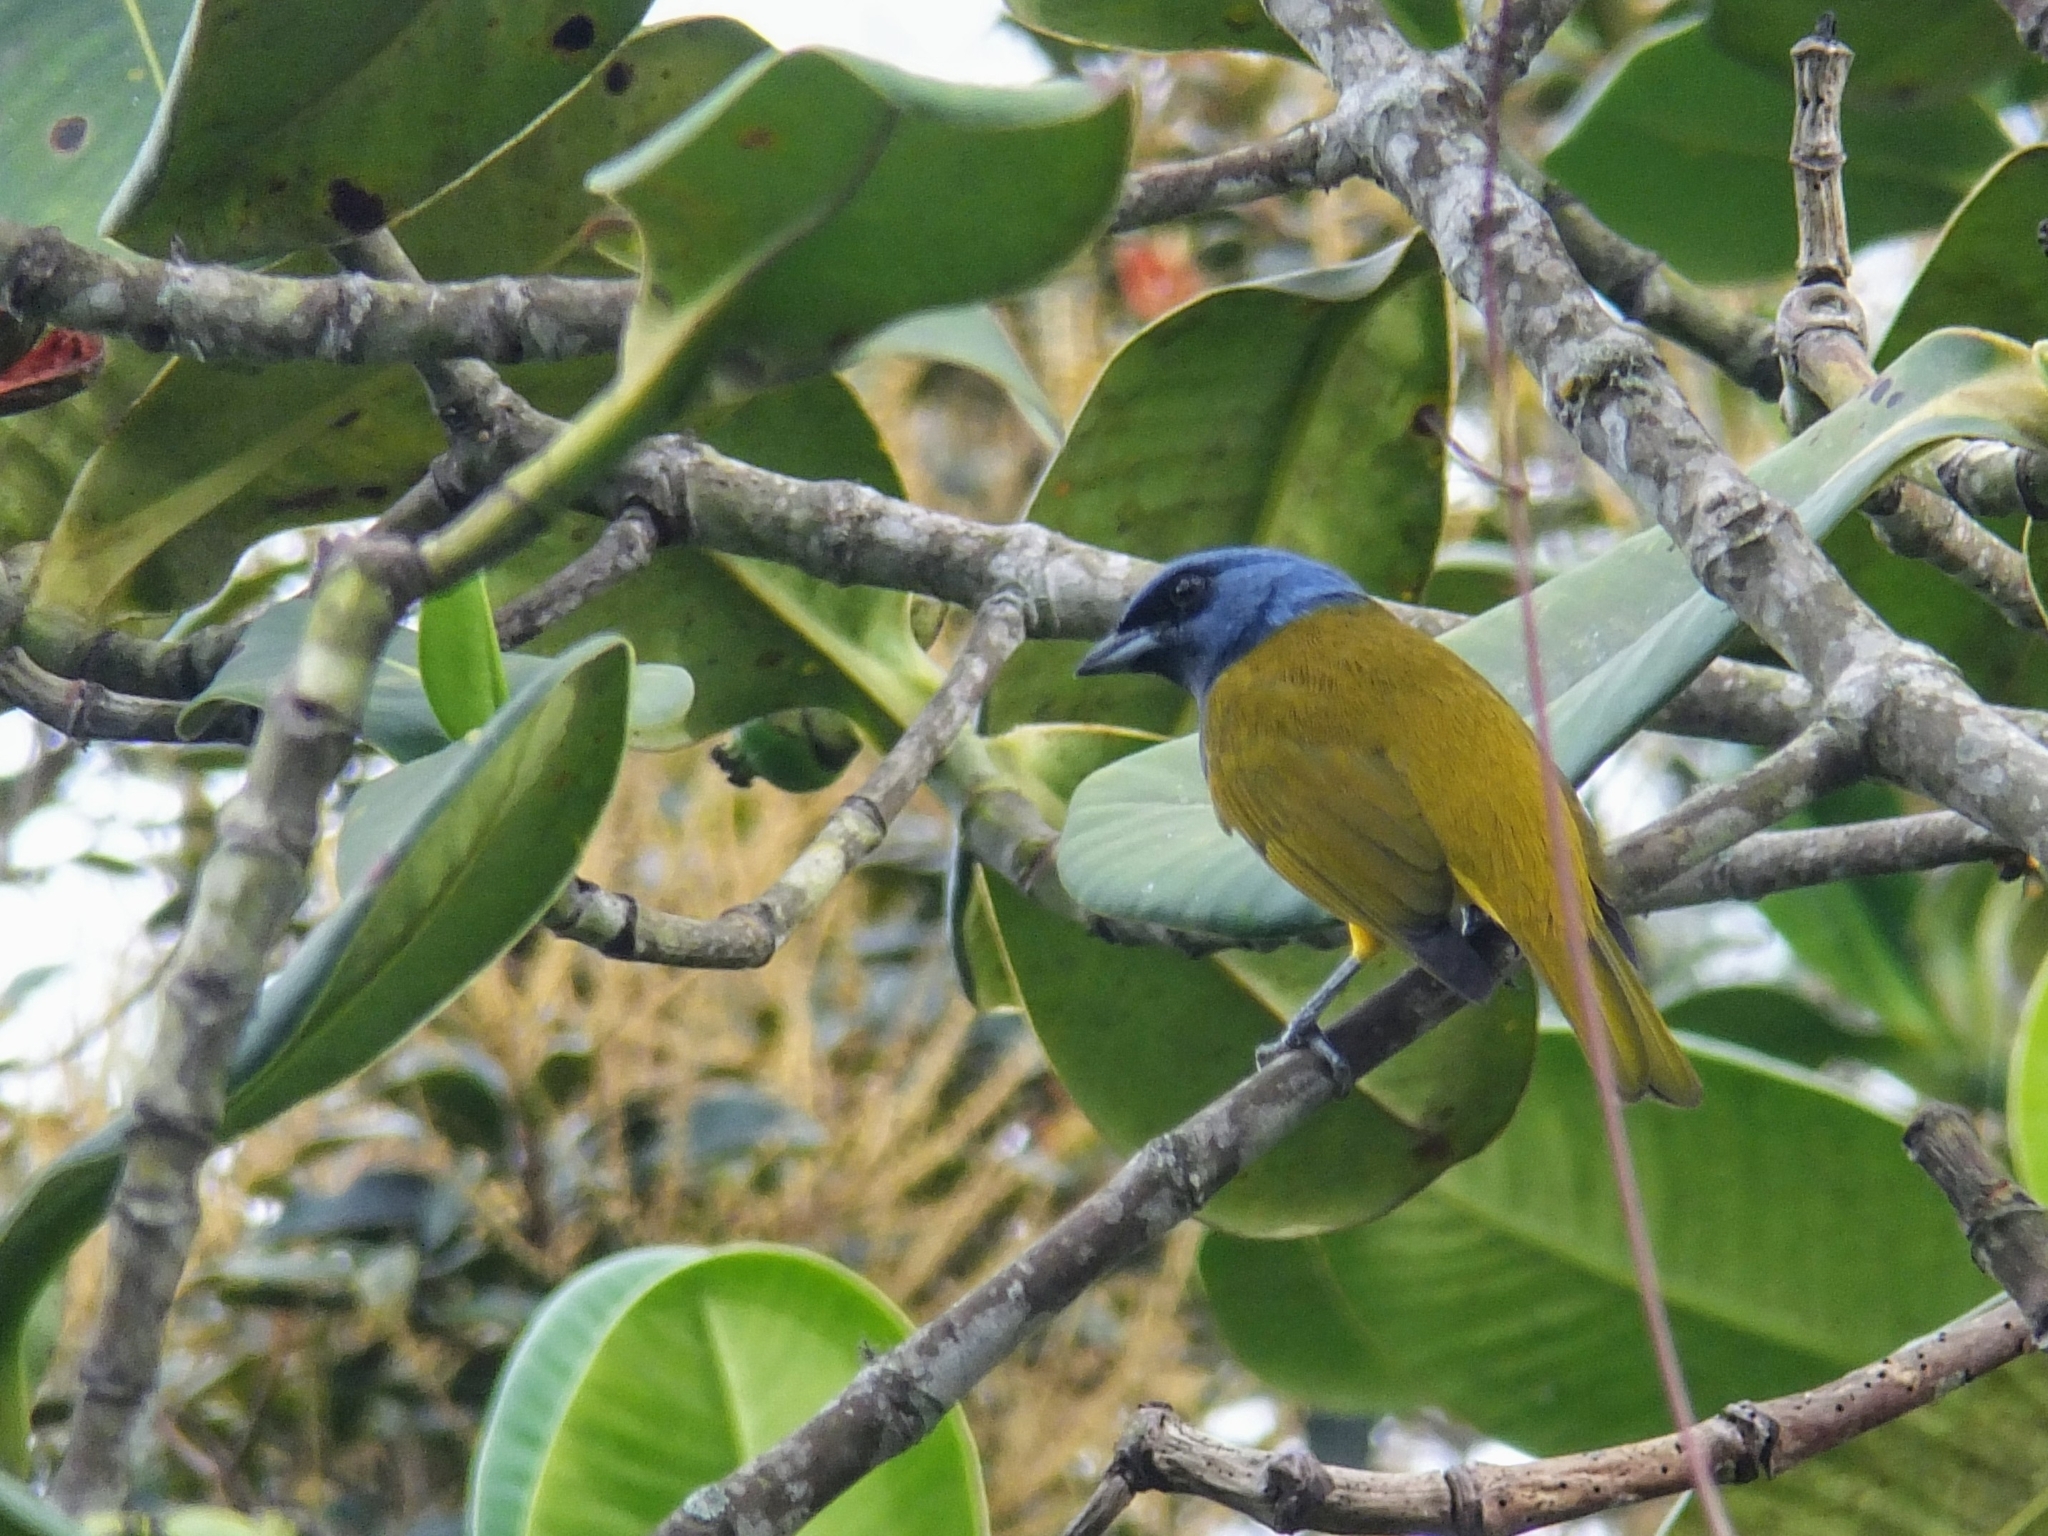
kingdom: Animalia
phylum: Chordata
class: Aves
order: Passeriformes
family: Thraupidae
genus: Sporathraupis
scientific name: Sporathraupis cyanocephala
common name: Blue-capped tanager
